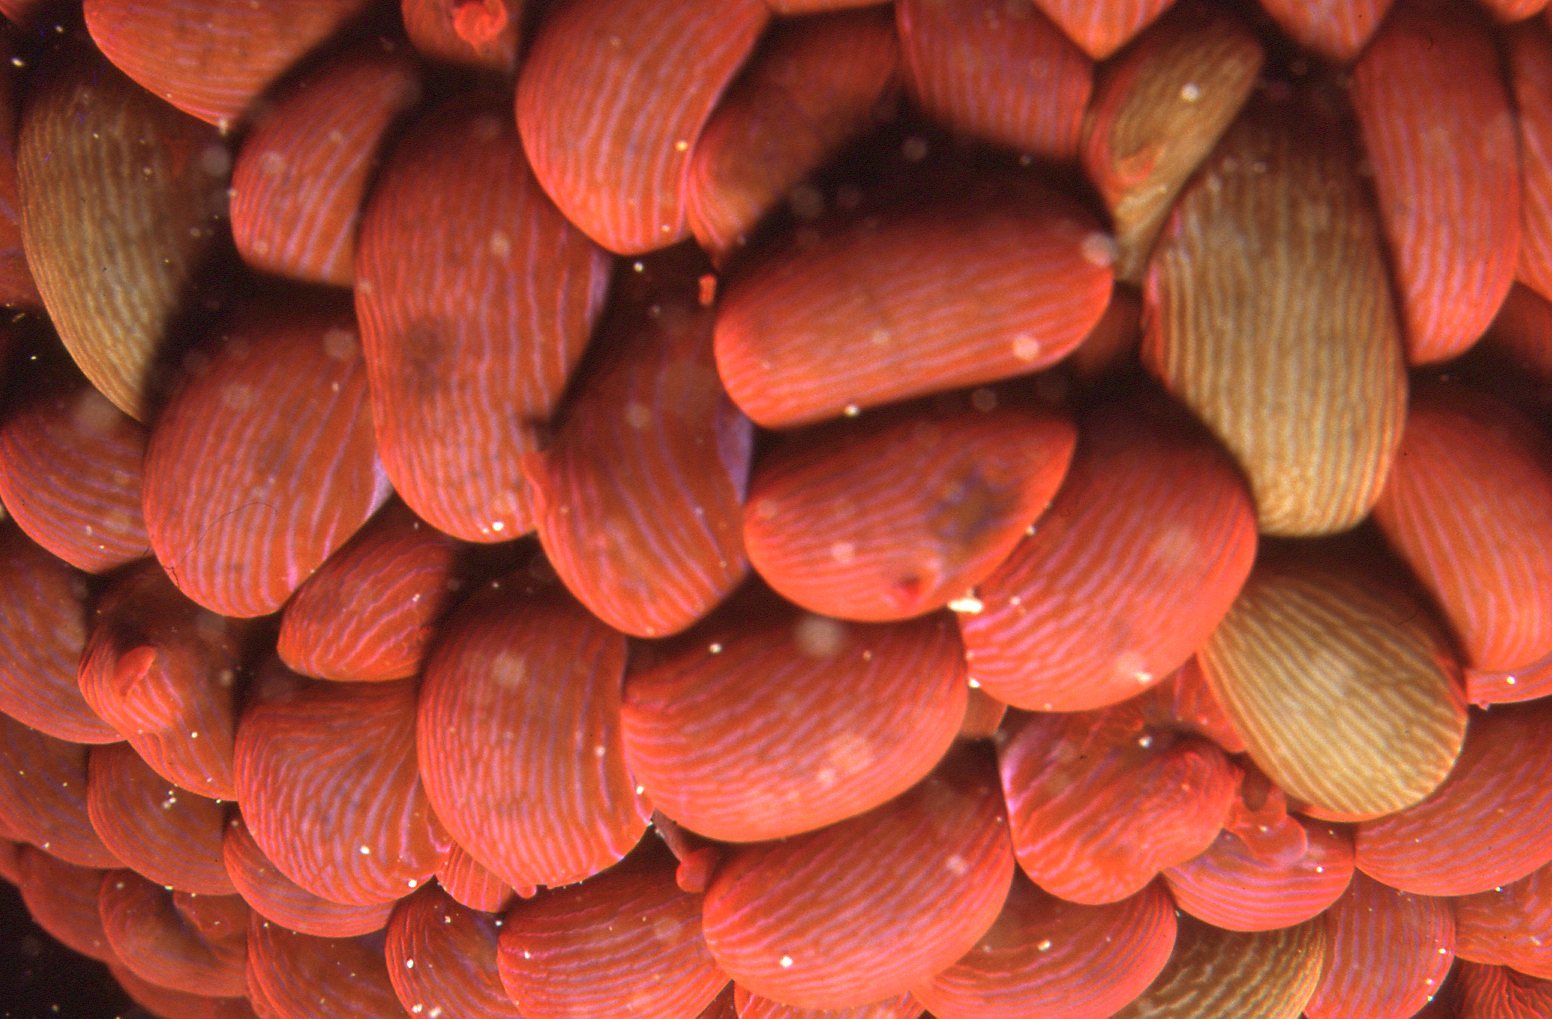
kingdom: Animalia
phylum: Cnidaria
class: Anthozoa
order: Actiniaria
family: Actiniidae
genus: Phlyctenactis
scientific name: Phlyctenactis tuberculosa
